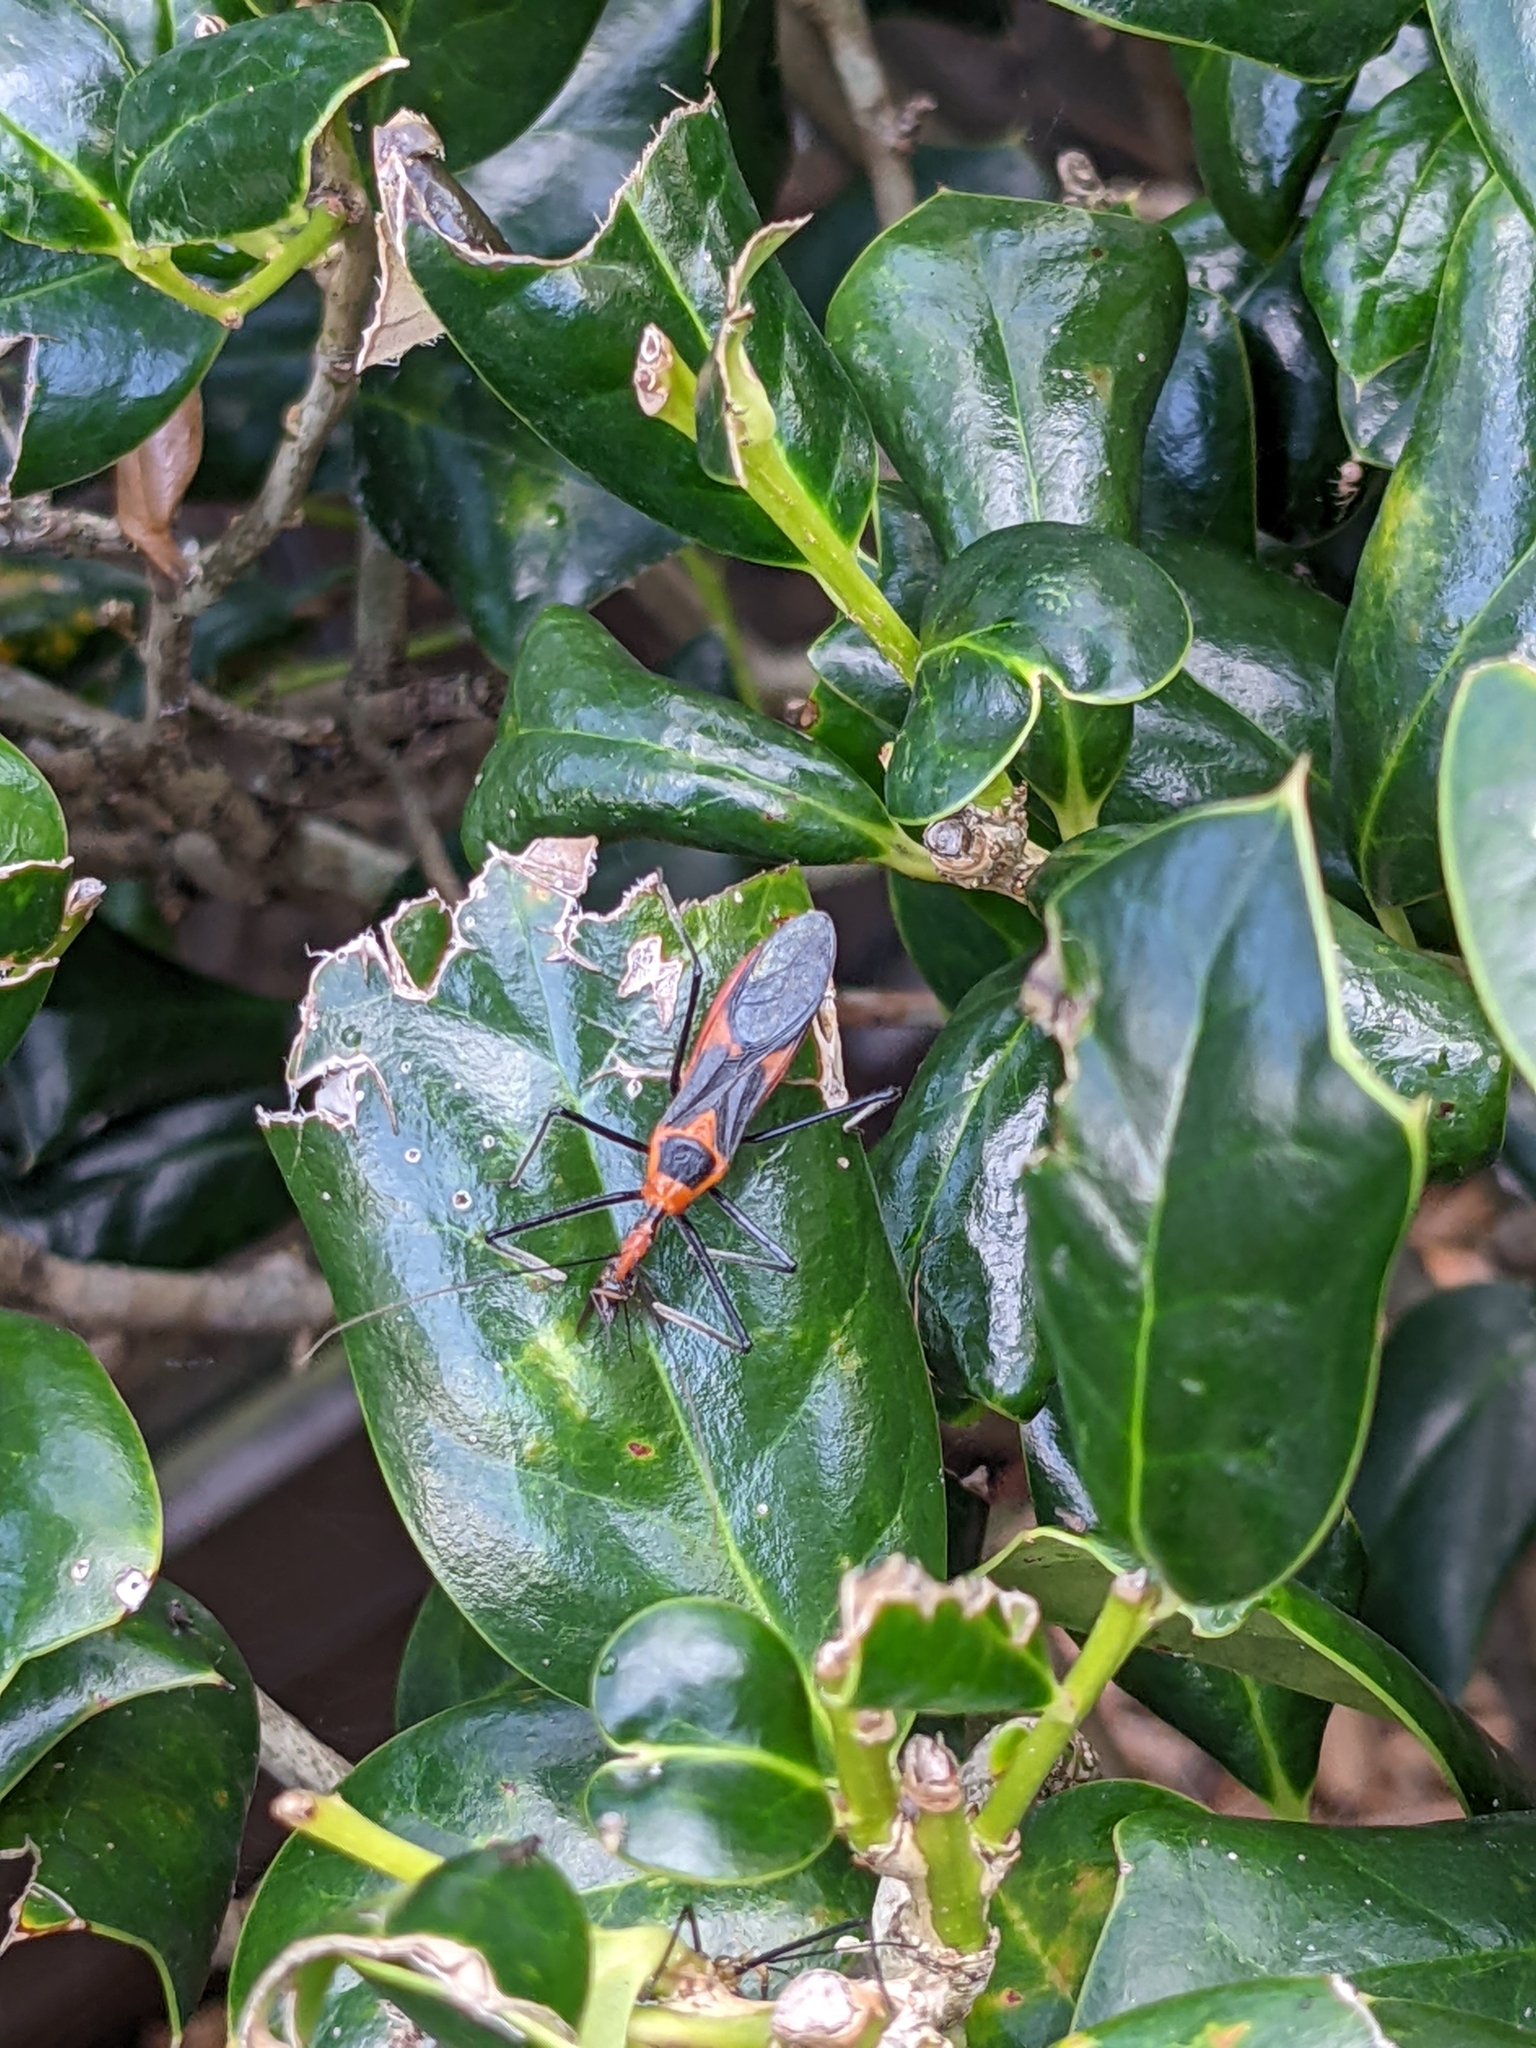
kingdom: Animalia
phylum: Arthropoda
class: Insecta
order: Hemiptera
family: Reduviidae
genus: Zelus
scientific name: Zelus longipes
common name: Milkweed assassin bug
